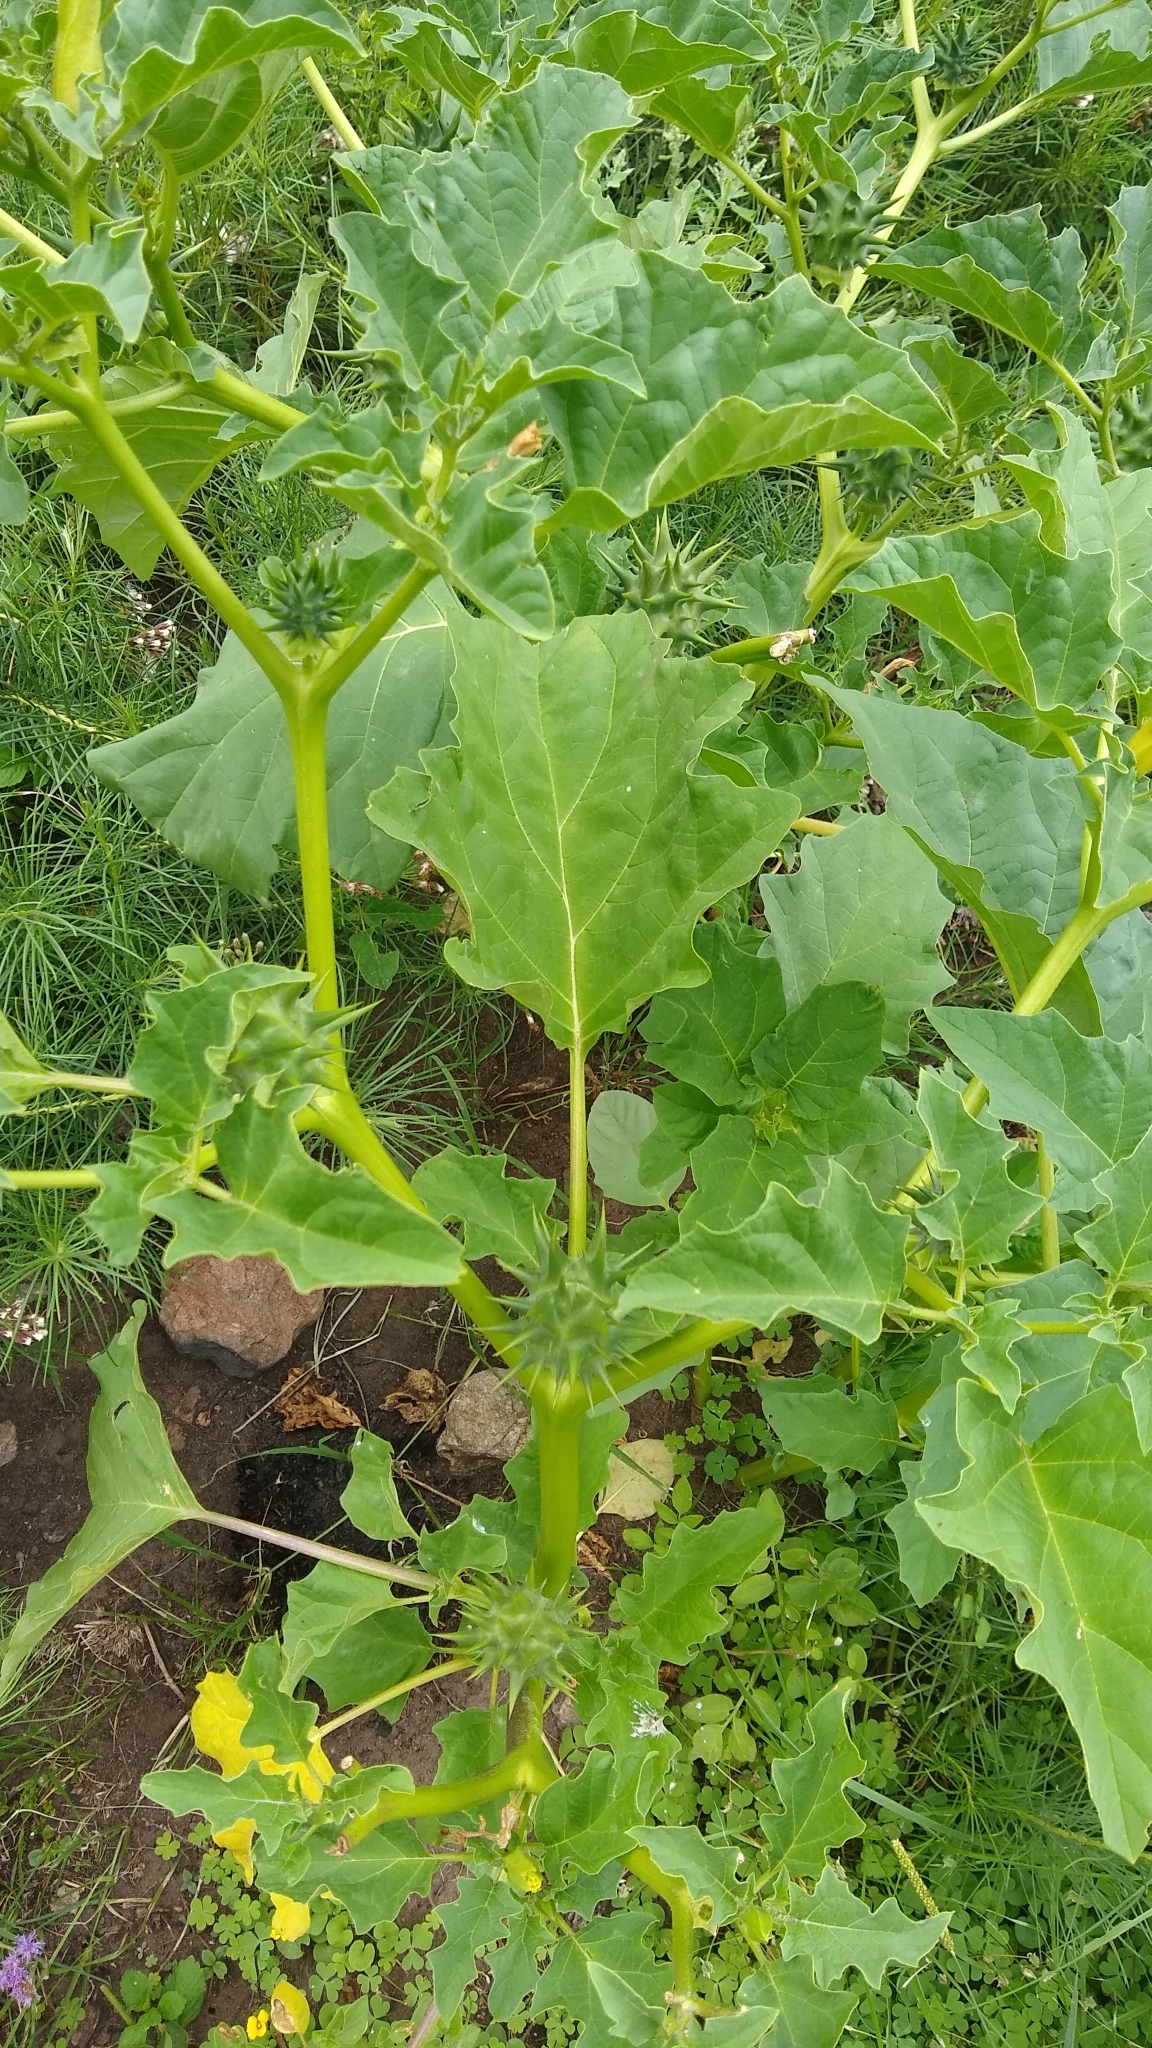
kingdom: Plantae
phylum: Tracheophyta
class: Magnoliopsida
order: Solanales
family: Solanaceae
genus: Datura
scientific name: Datura ferox
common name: Angel's-trumpets
